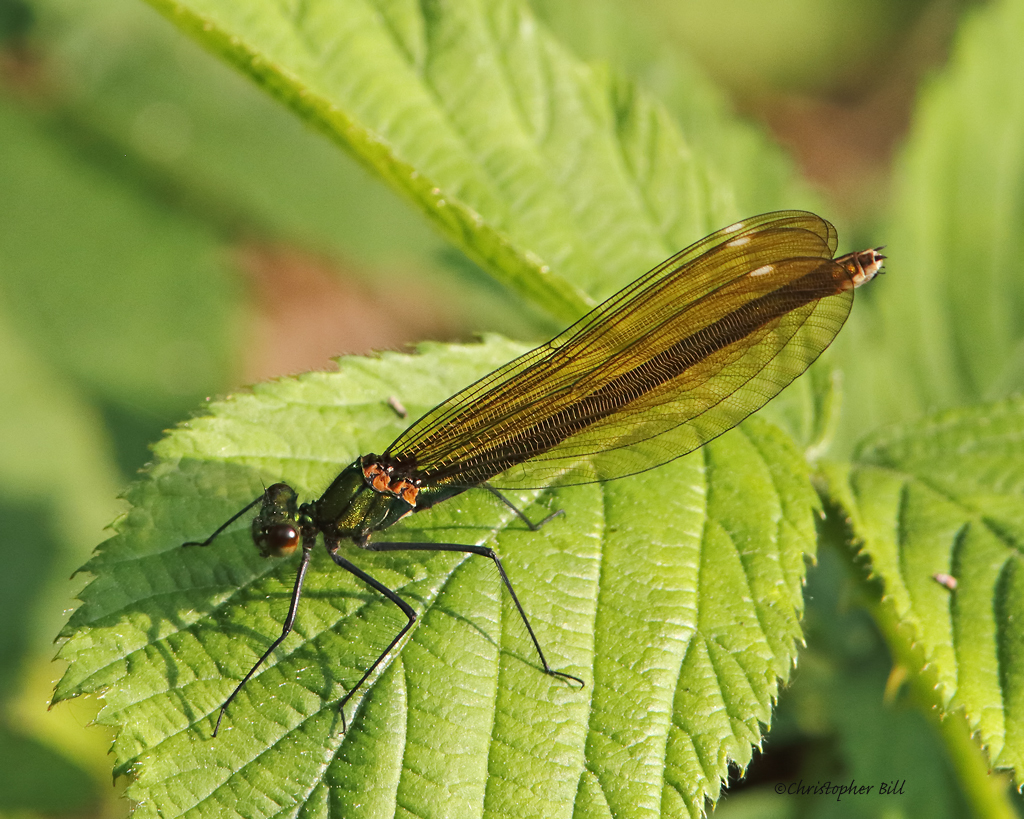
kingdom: Animalia
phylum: Arthropoda
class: Insecta
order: Odonata
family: Calopterygidae
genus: Calopteryx
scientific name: Calopteryx virgo
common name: Beautiful demoiselle
